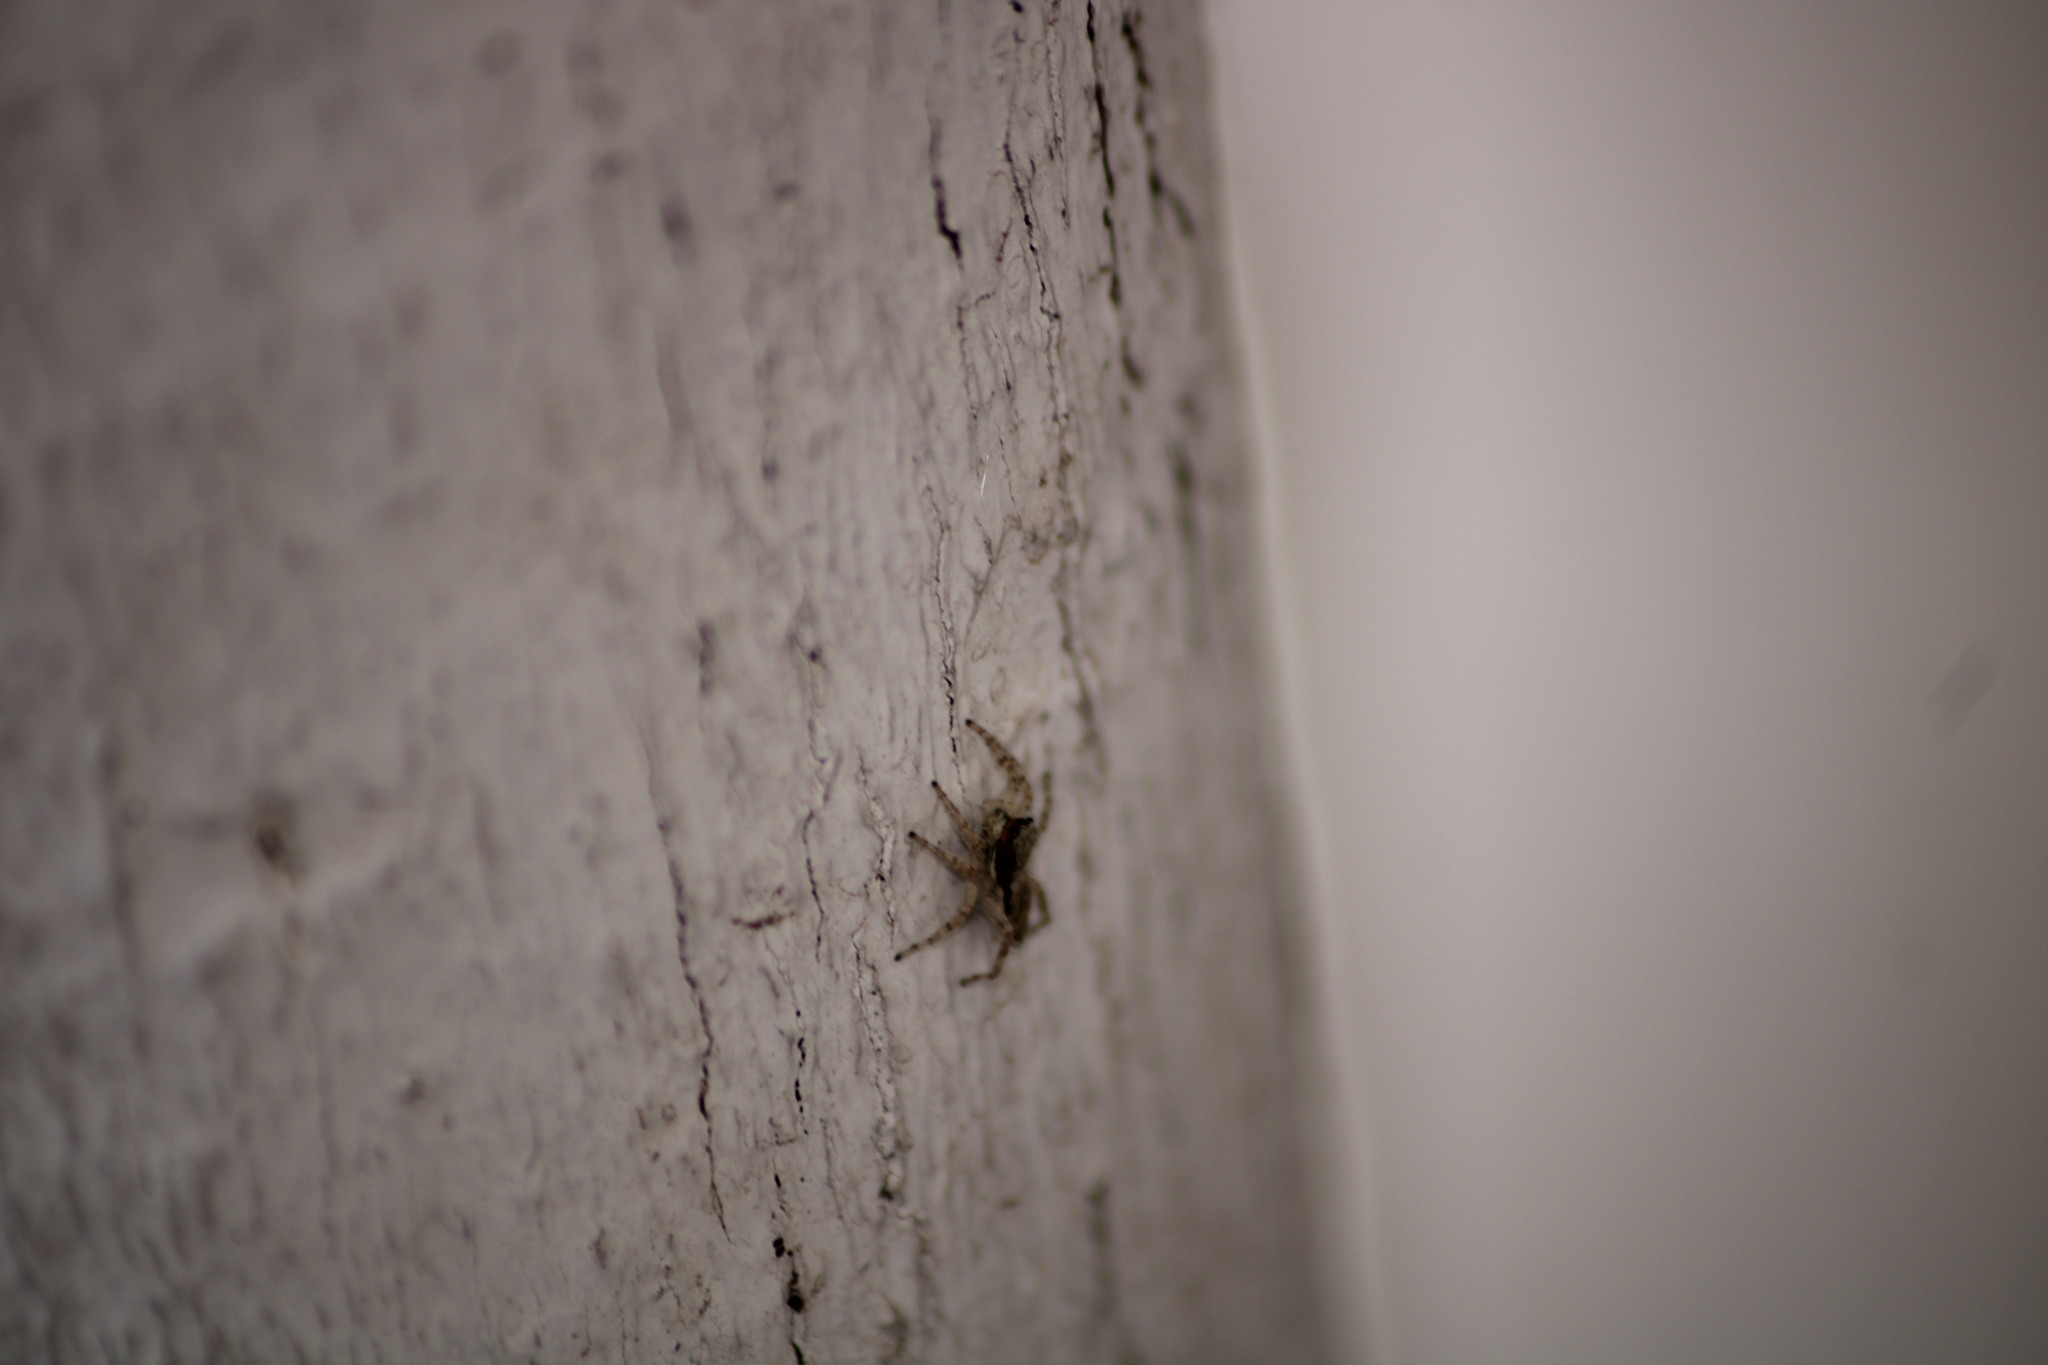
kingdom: Animalia
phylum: Arthropoda
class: Arachnida
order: Araneae
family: Salticidae
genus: Menemerus
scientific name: Menemerus bivittatus
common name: Gray wall jumper
